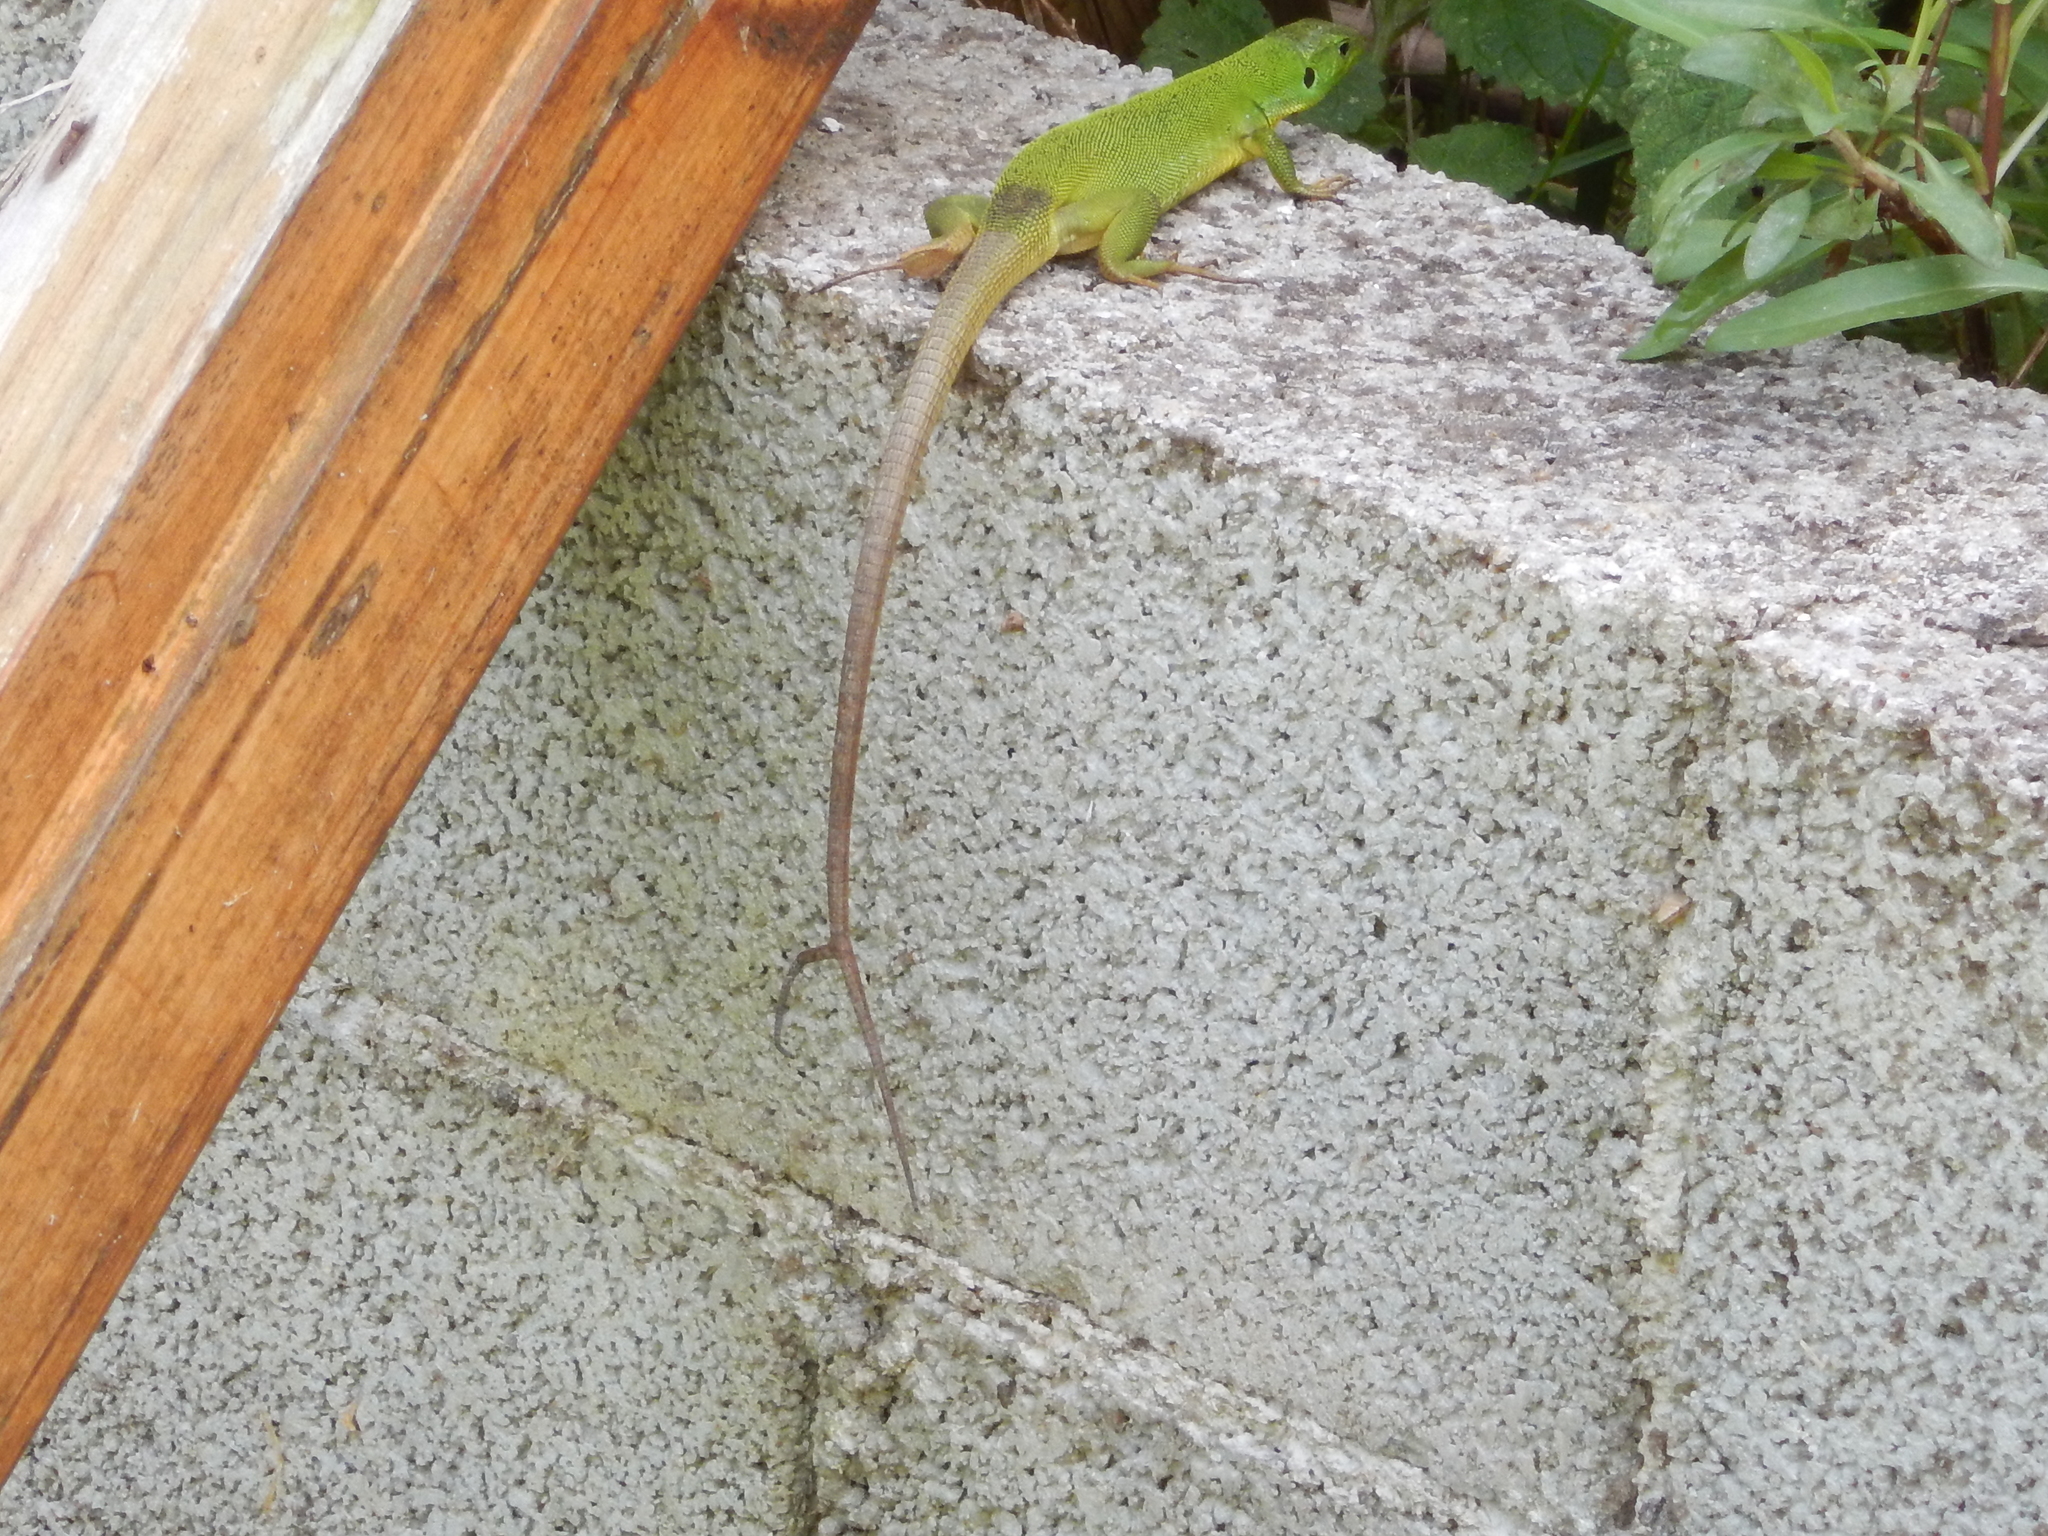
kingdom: Animalia
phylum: Chordata
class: Squamata
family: Lacertidae
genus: Lacerta
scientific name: Lacerta trilineata
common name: Balkan green lizard
